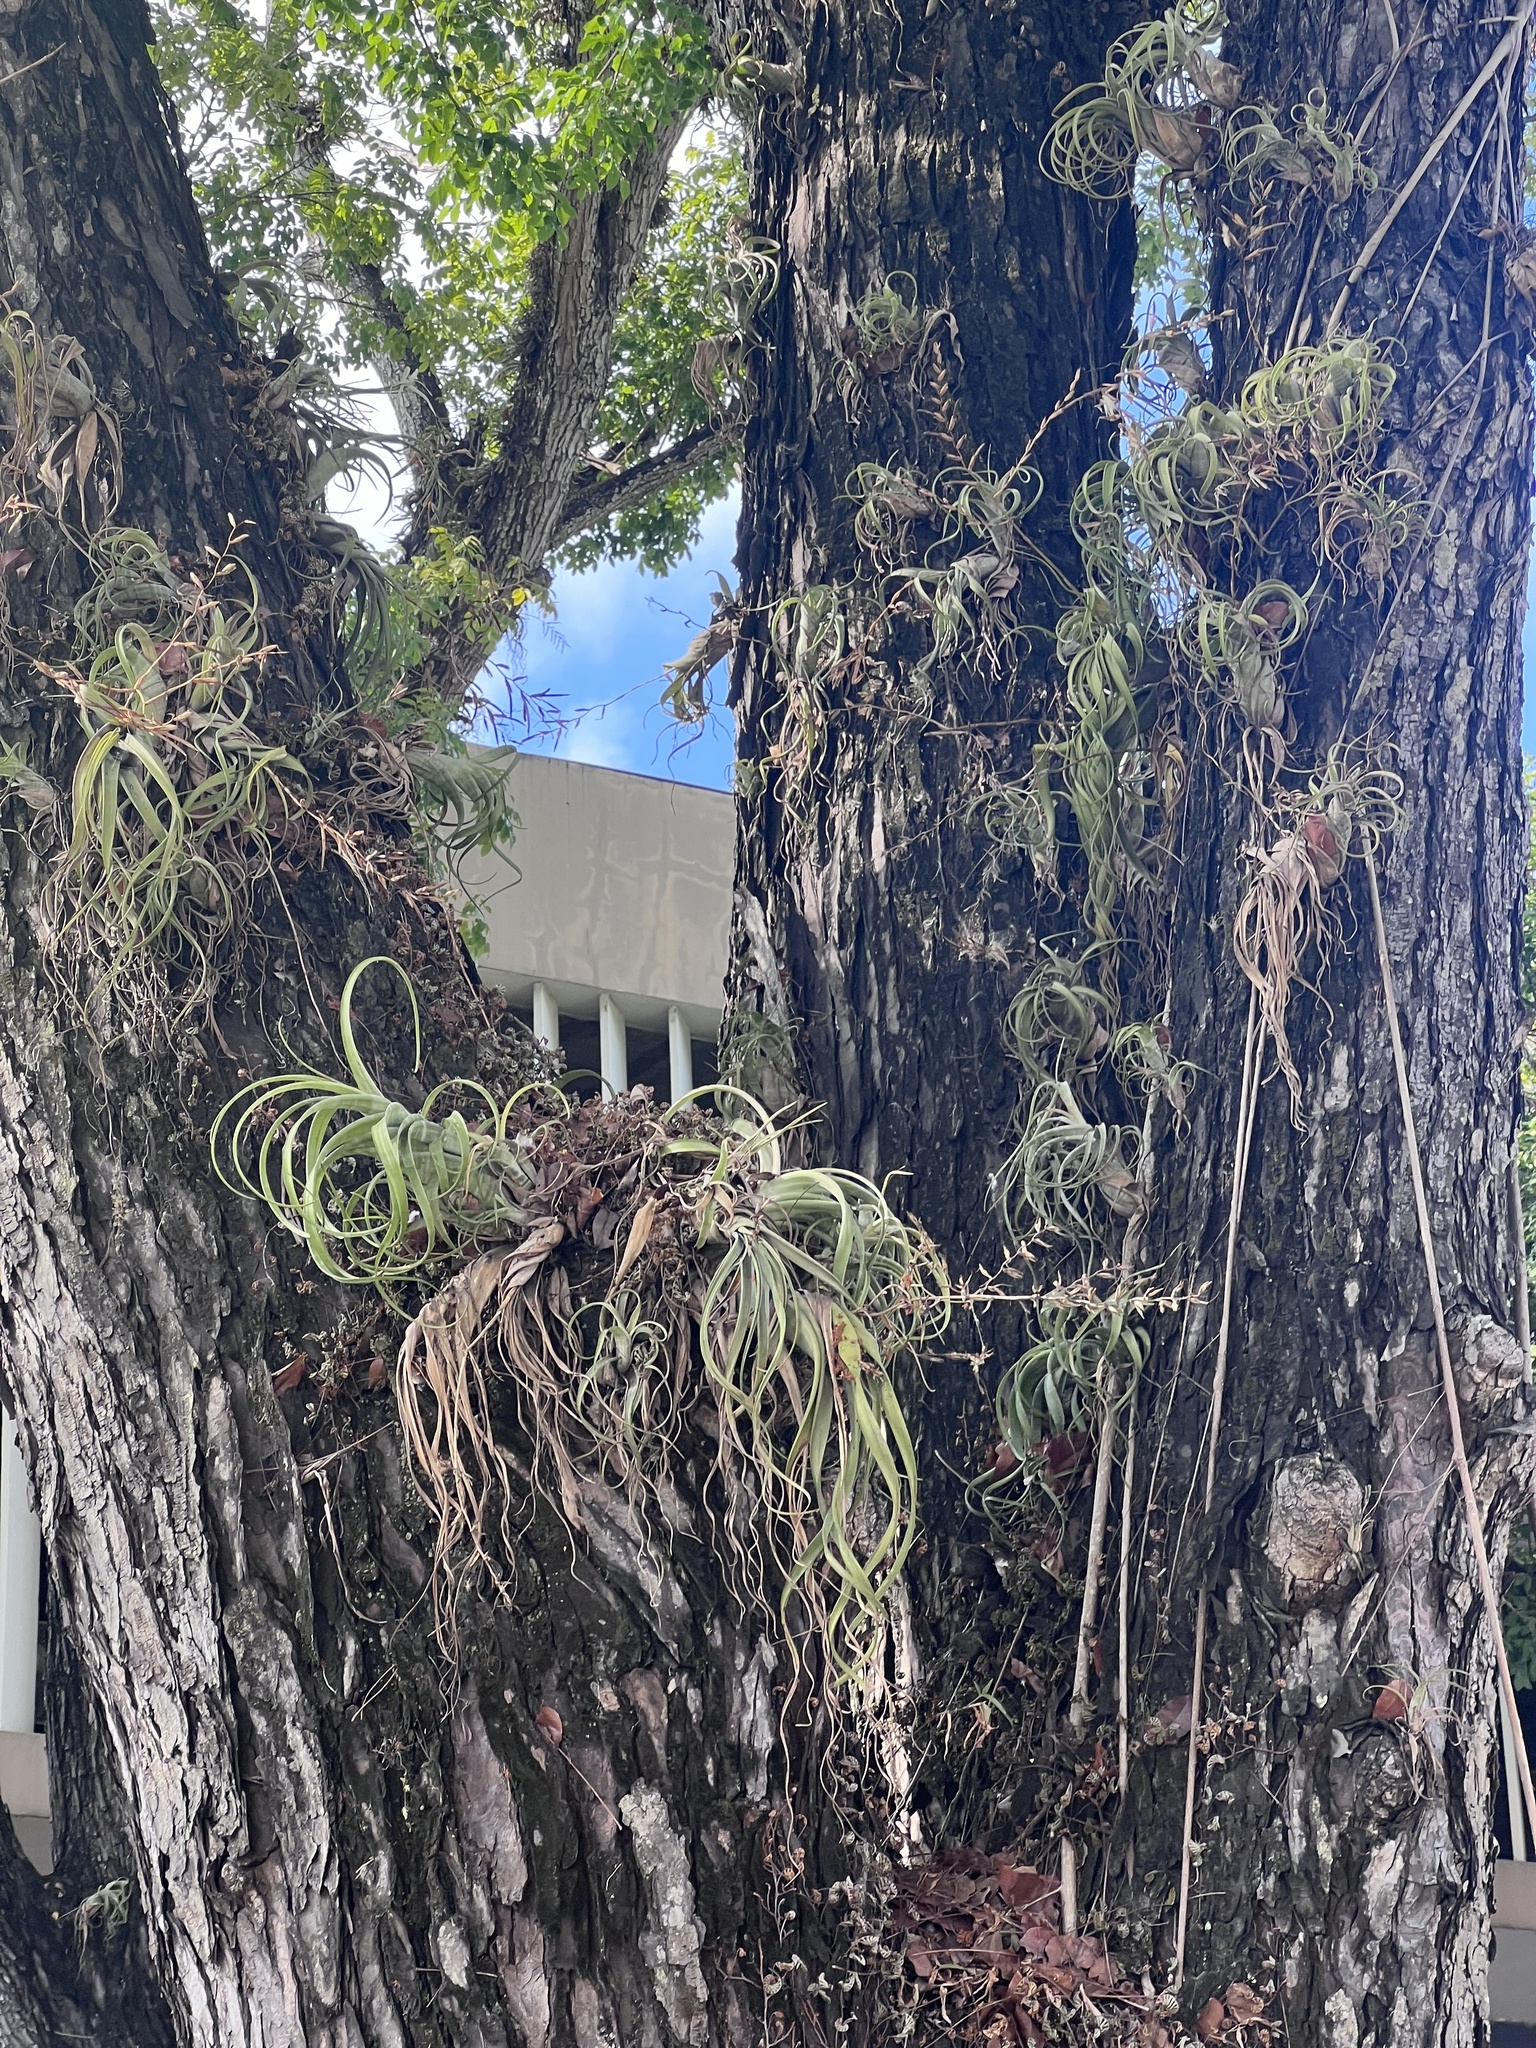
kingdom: Plantae
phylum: Tracheophyta
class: Liliopsida
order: Poales
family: Bromeliaceae
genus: Tillandsia
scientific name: Tillandsia flexuosa
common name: Banded airplant
